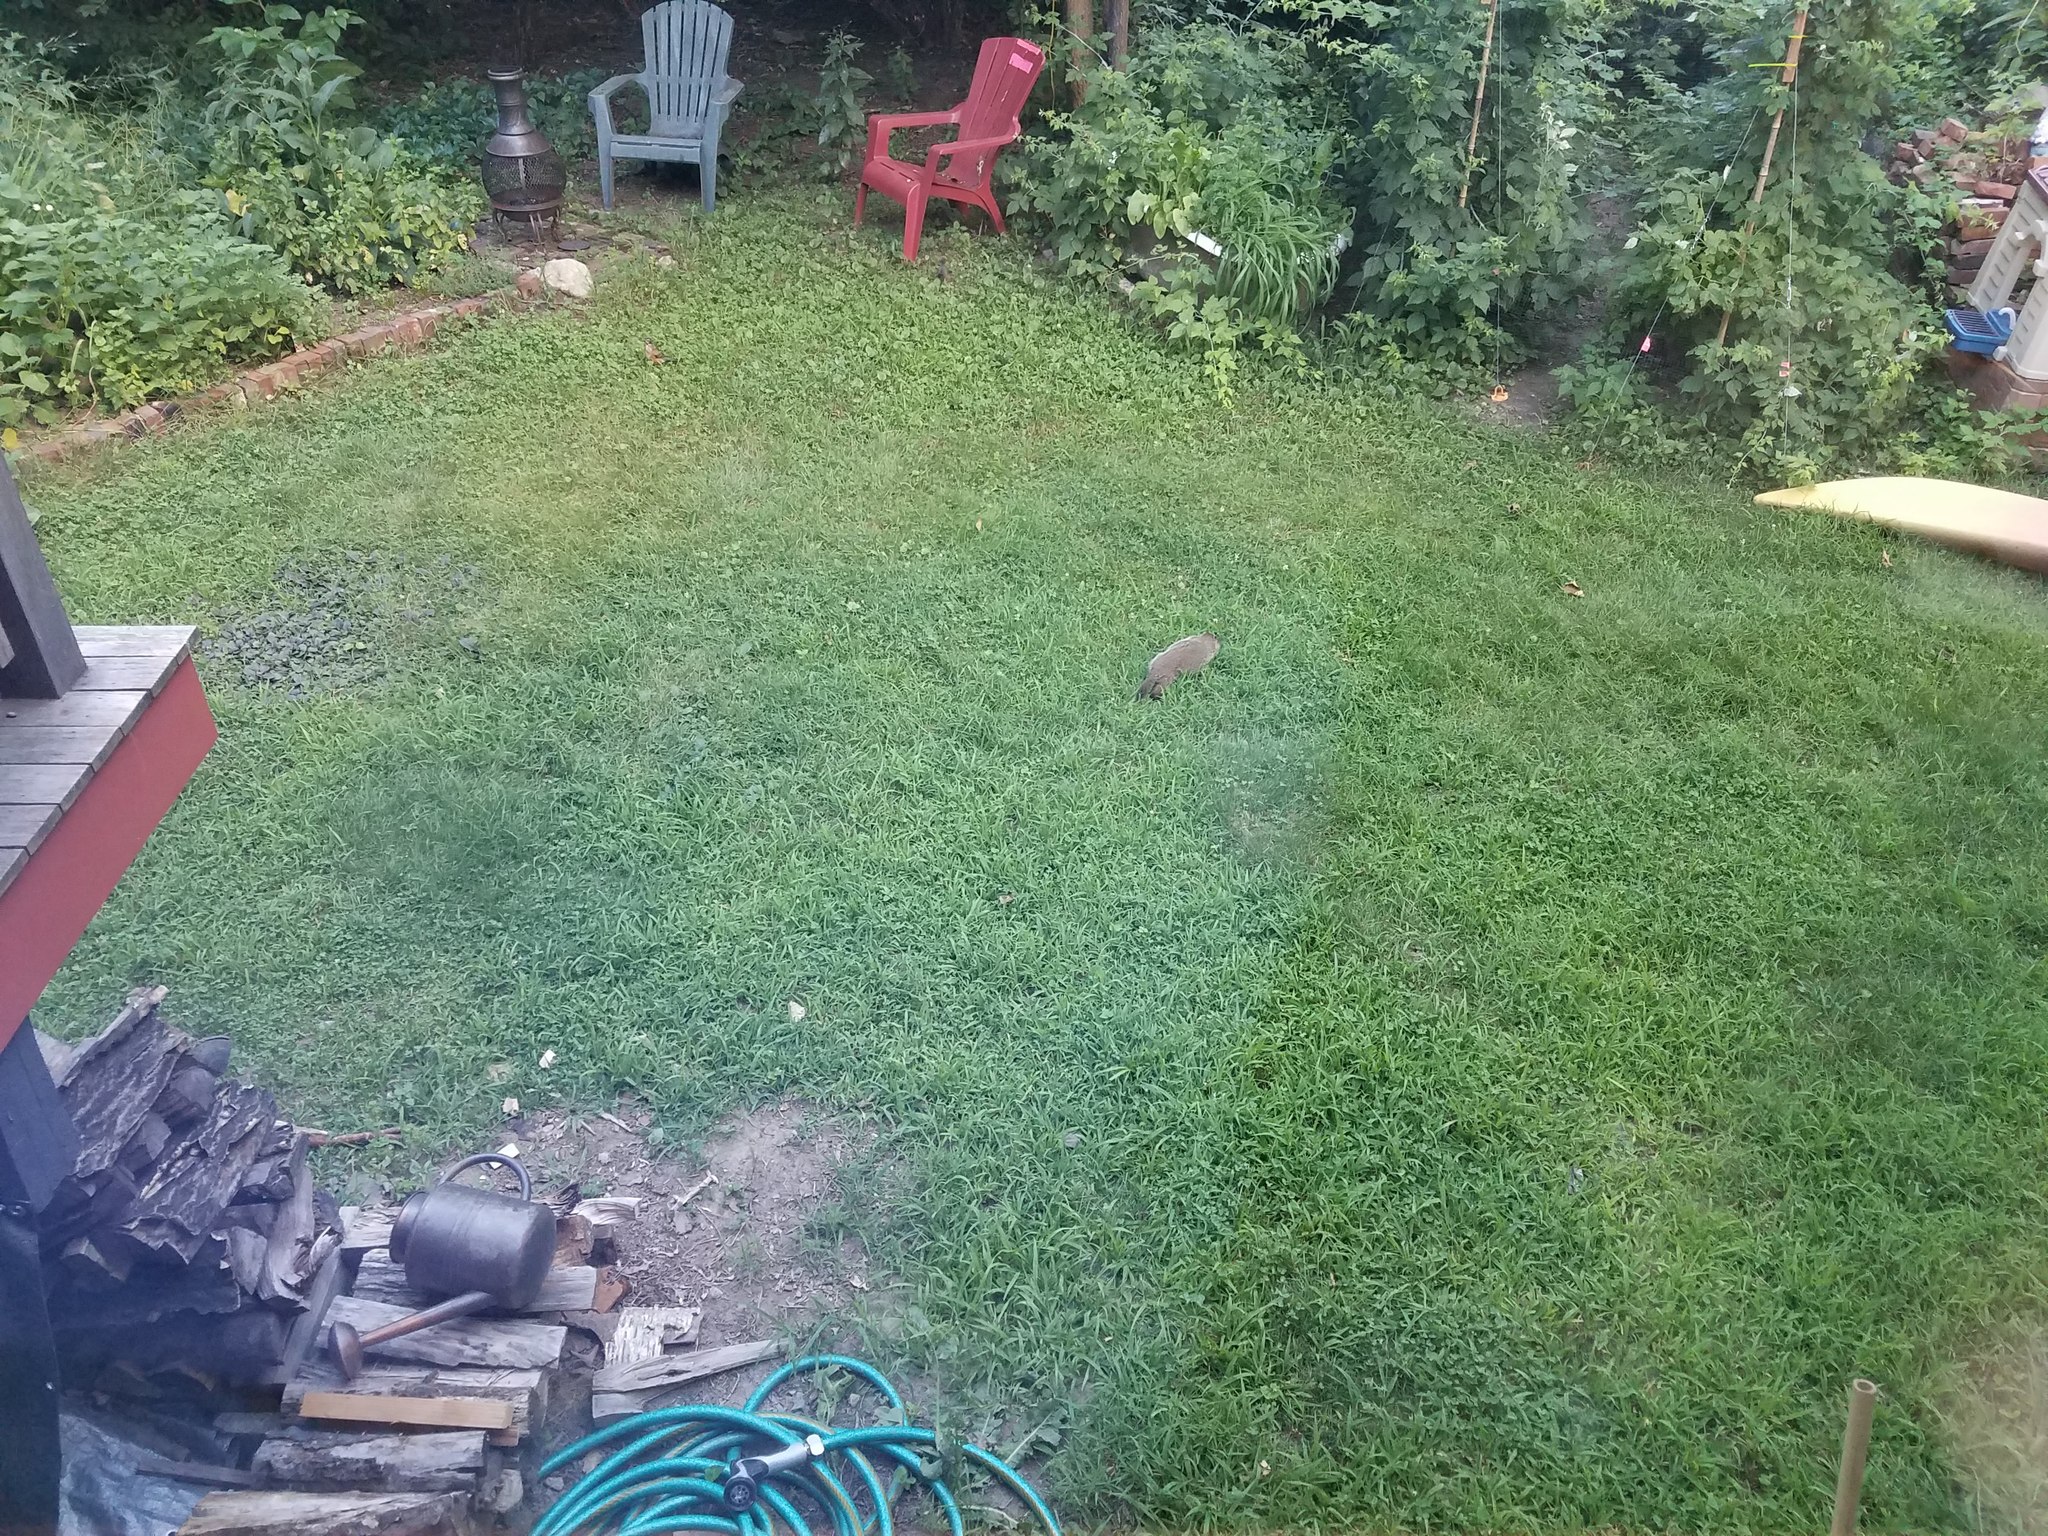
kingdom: Animalia
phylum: Chordata
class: Mammalia
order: Rodentia
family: Sciuridae
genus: Marmota
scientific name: Marmota monax
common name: Groundhog
